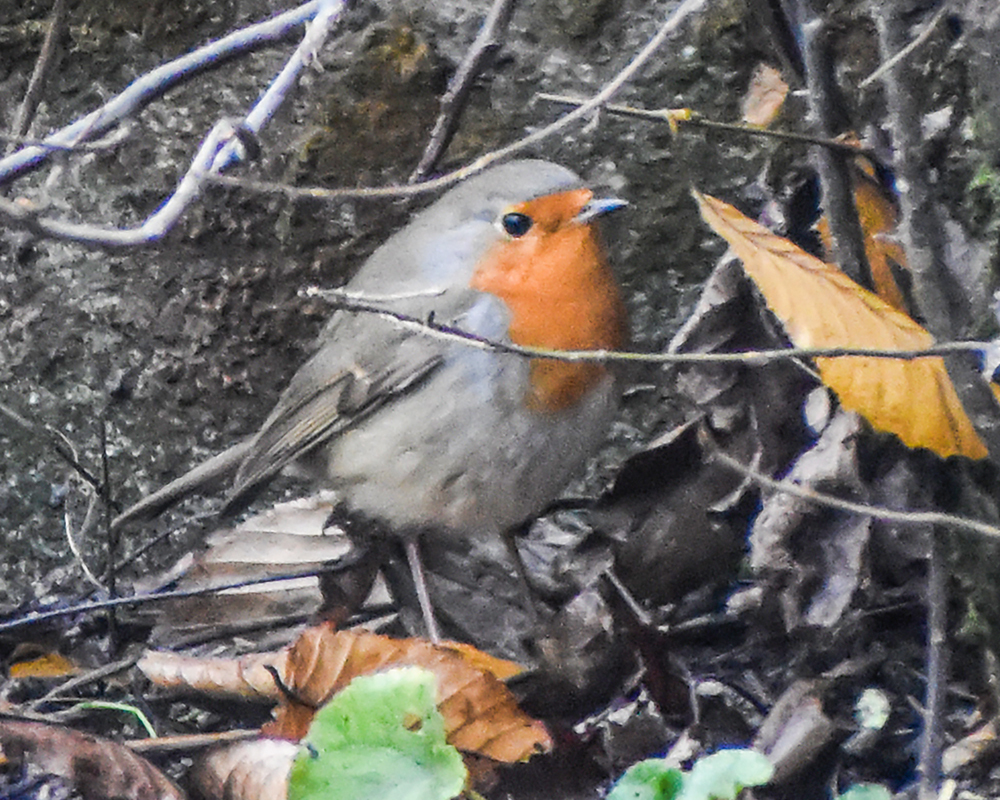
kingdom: Animalia
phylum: Chordata
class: Aves
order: Passeriformes
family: Muscicapidae
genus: Erithacus
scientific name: Erithacus rubecula
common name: European robin
